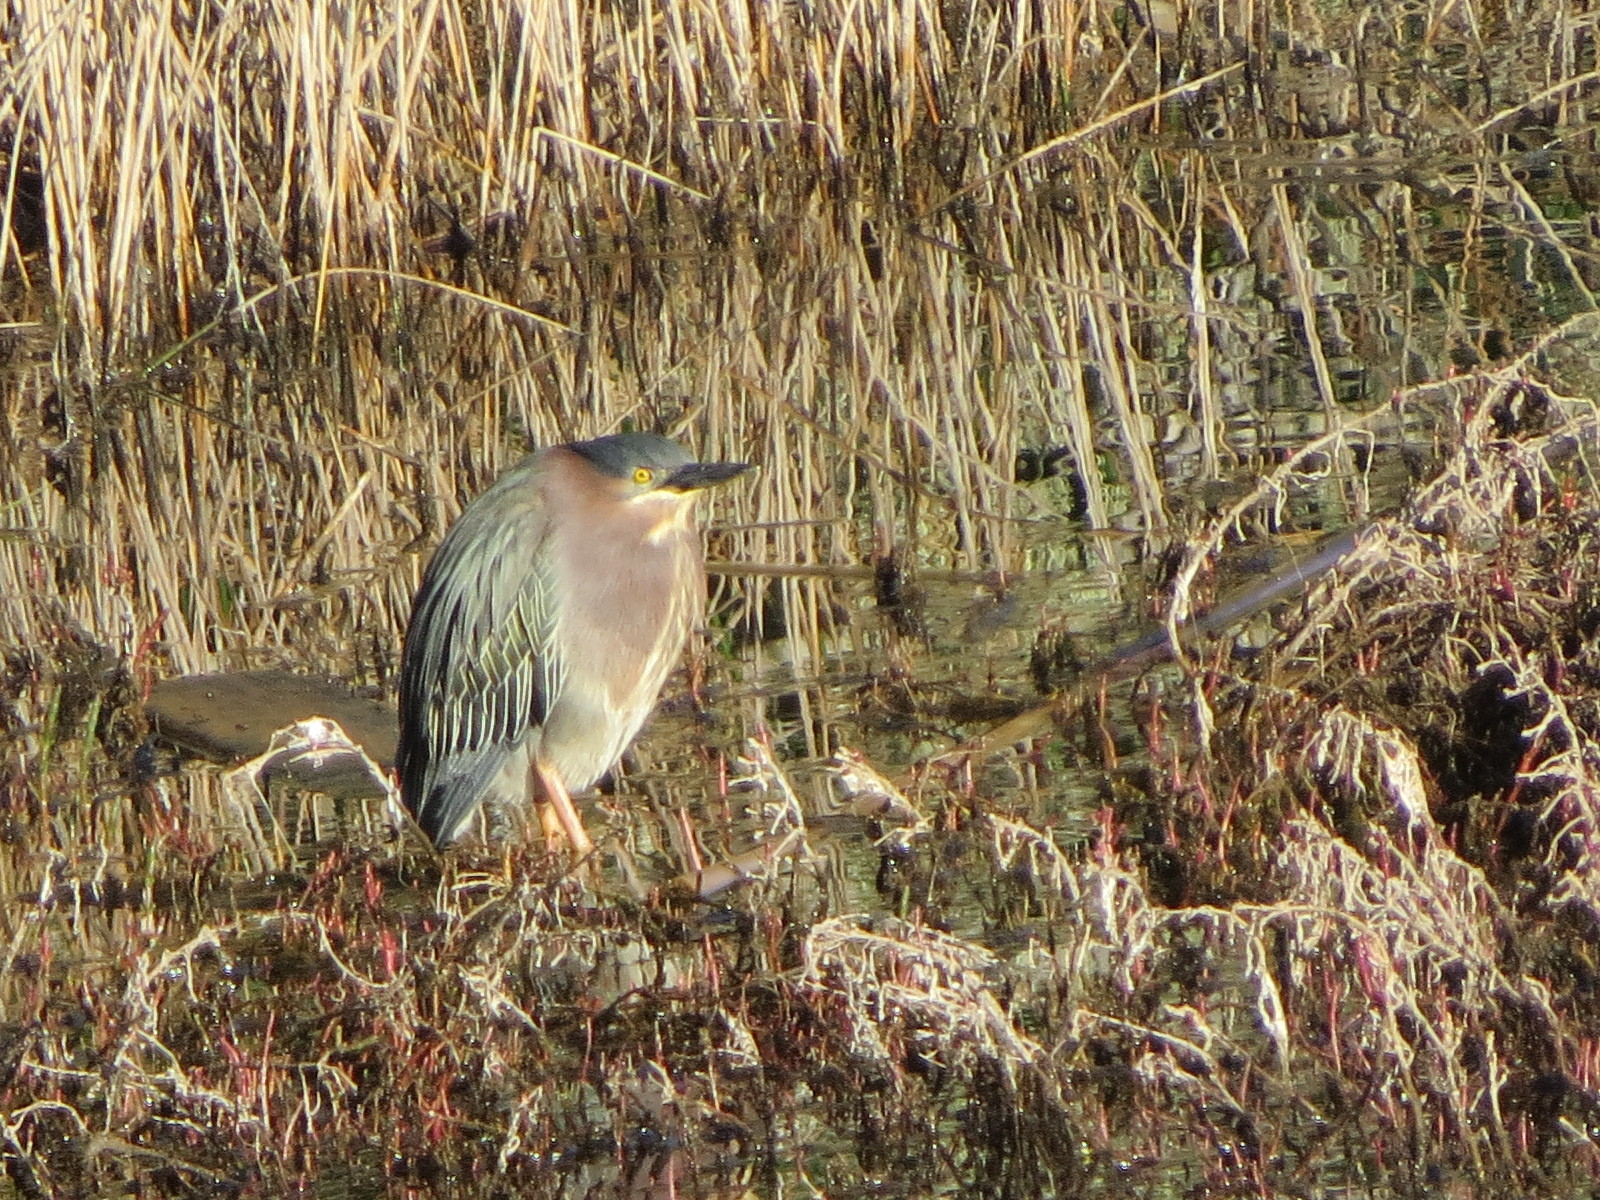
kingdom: Animalia
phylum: Chordata
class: Aves
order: Pelecaniformes
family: Ardeidae
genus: Butorides
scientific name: Butorides virescens
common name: Green heron
